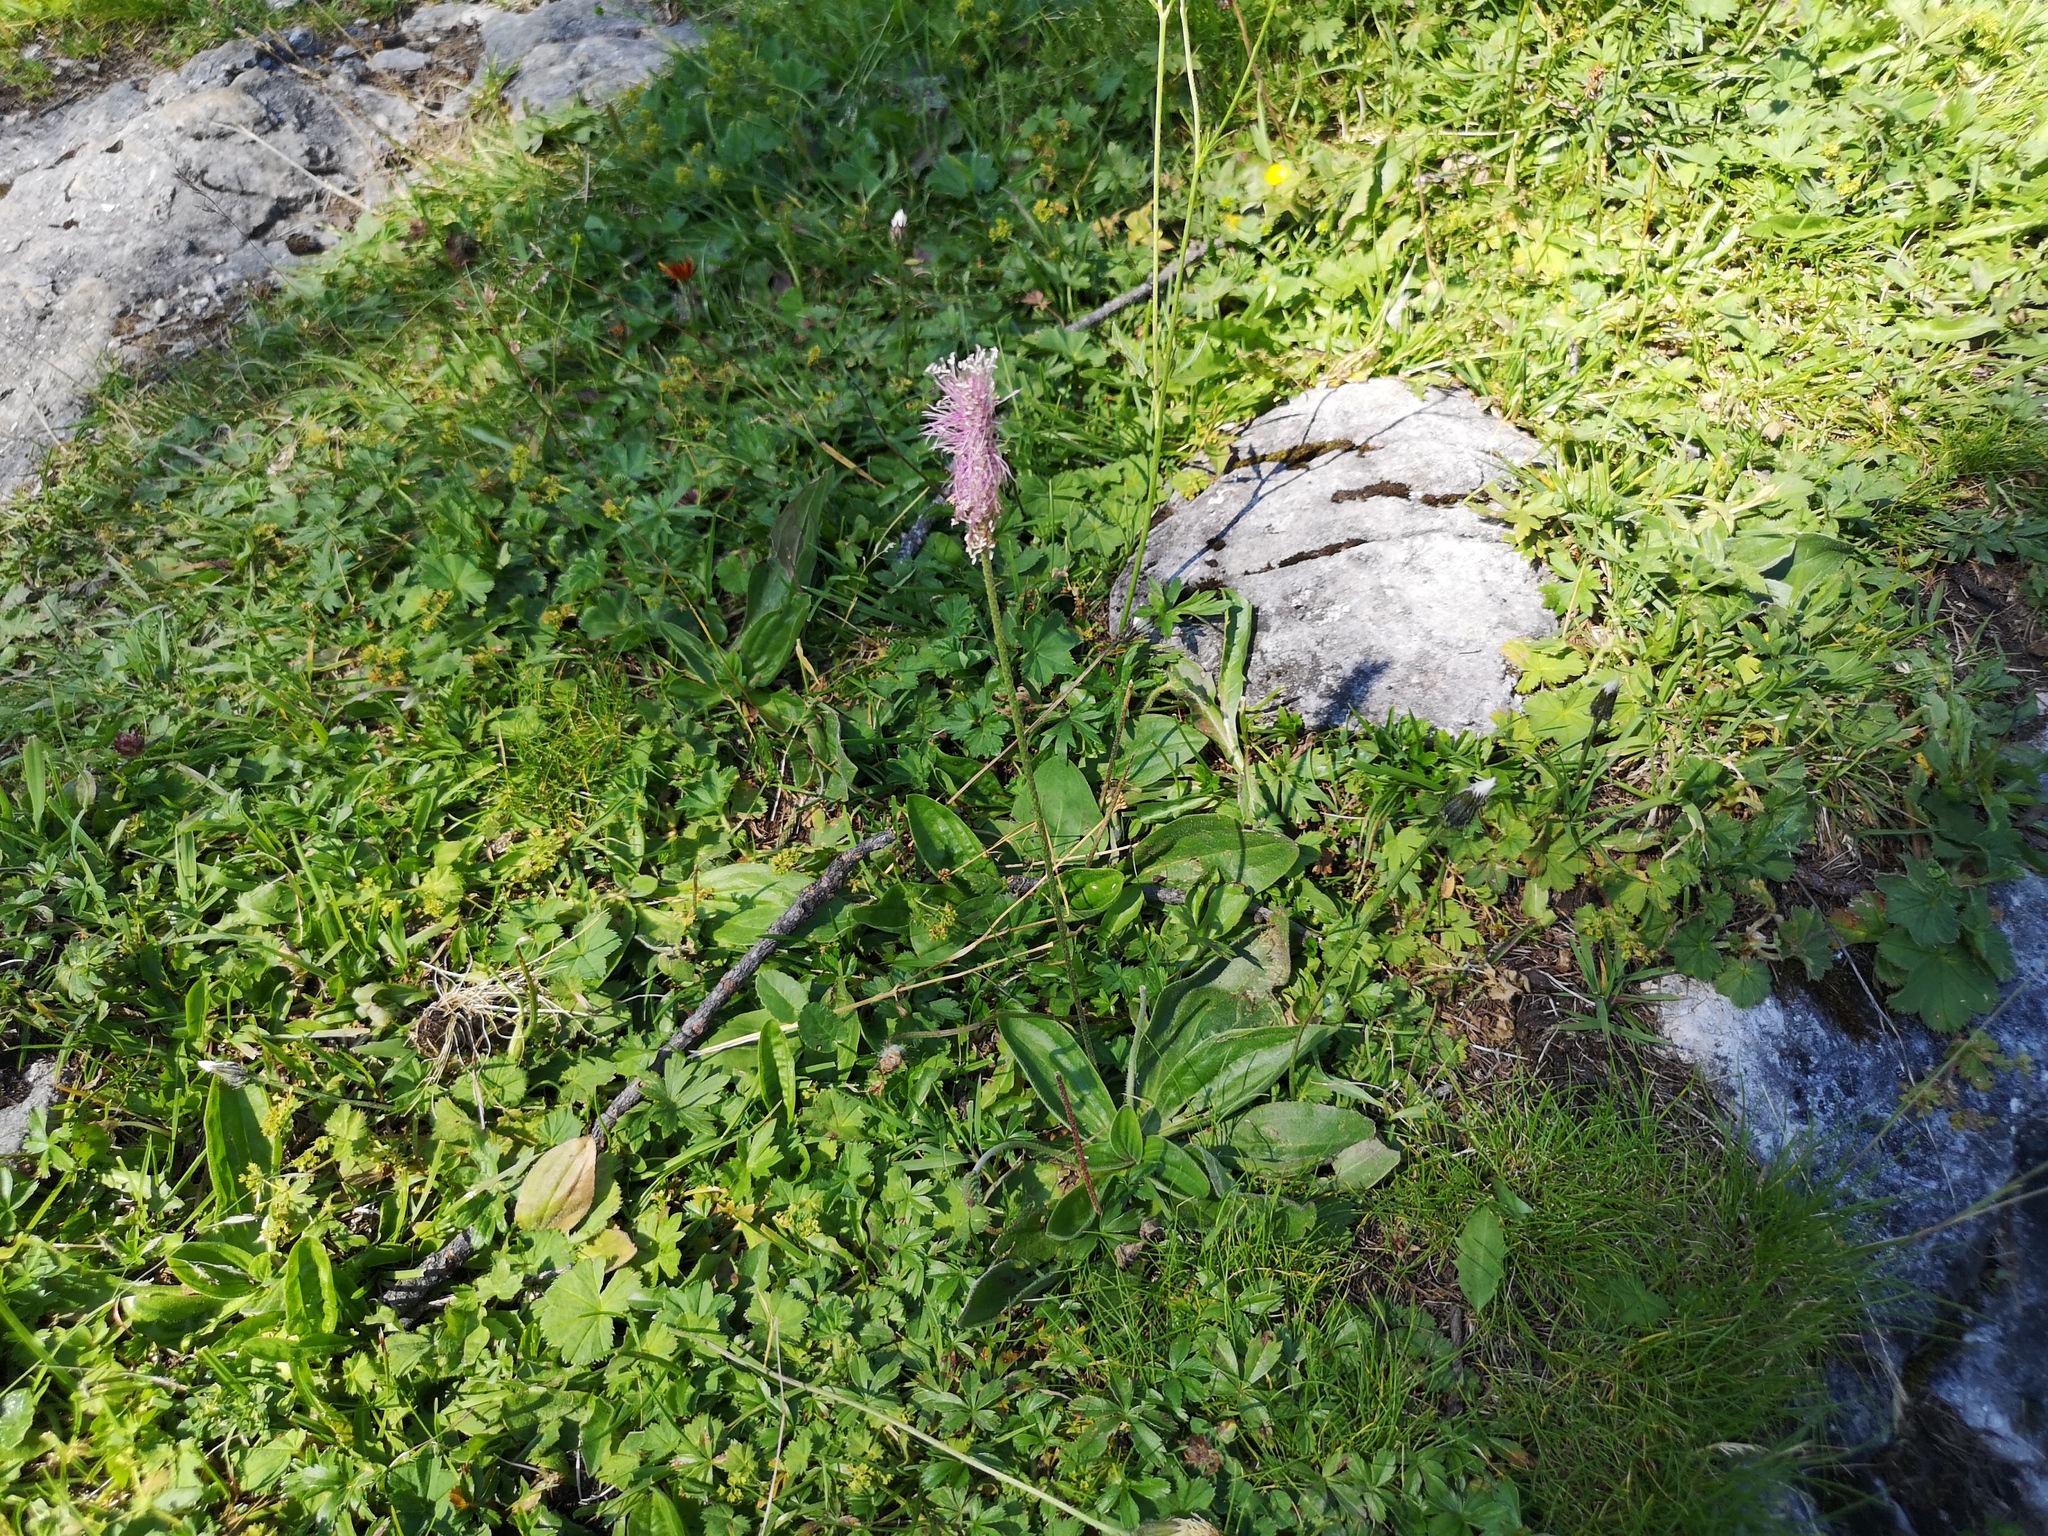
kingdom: Plantae
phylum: Tracheophyta
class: Magnoliopsida
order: Lamiales
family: Plantaginaceae
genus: Plantago
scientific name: Plantago media
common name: Hoary plantain
